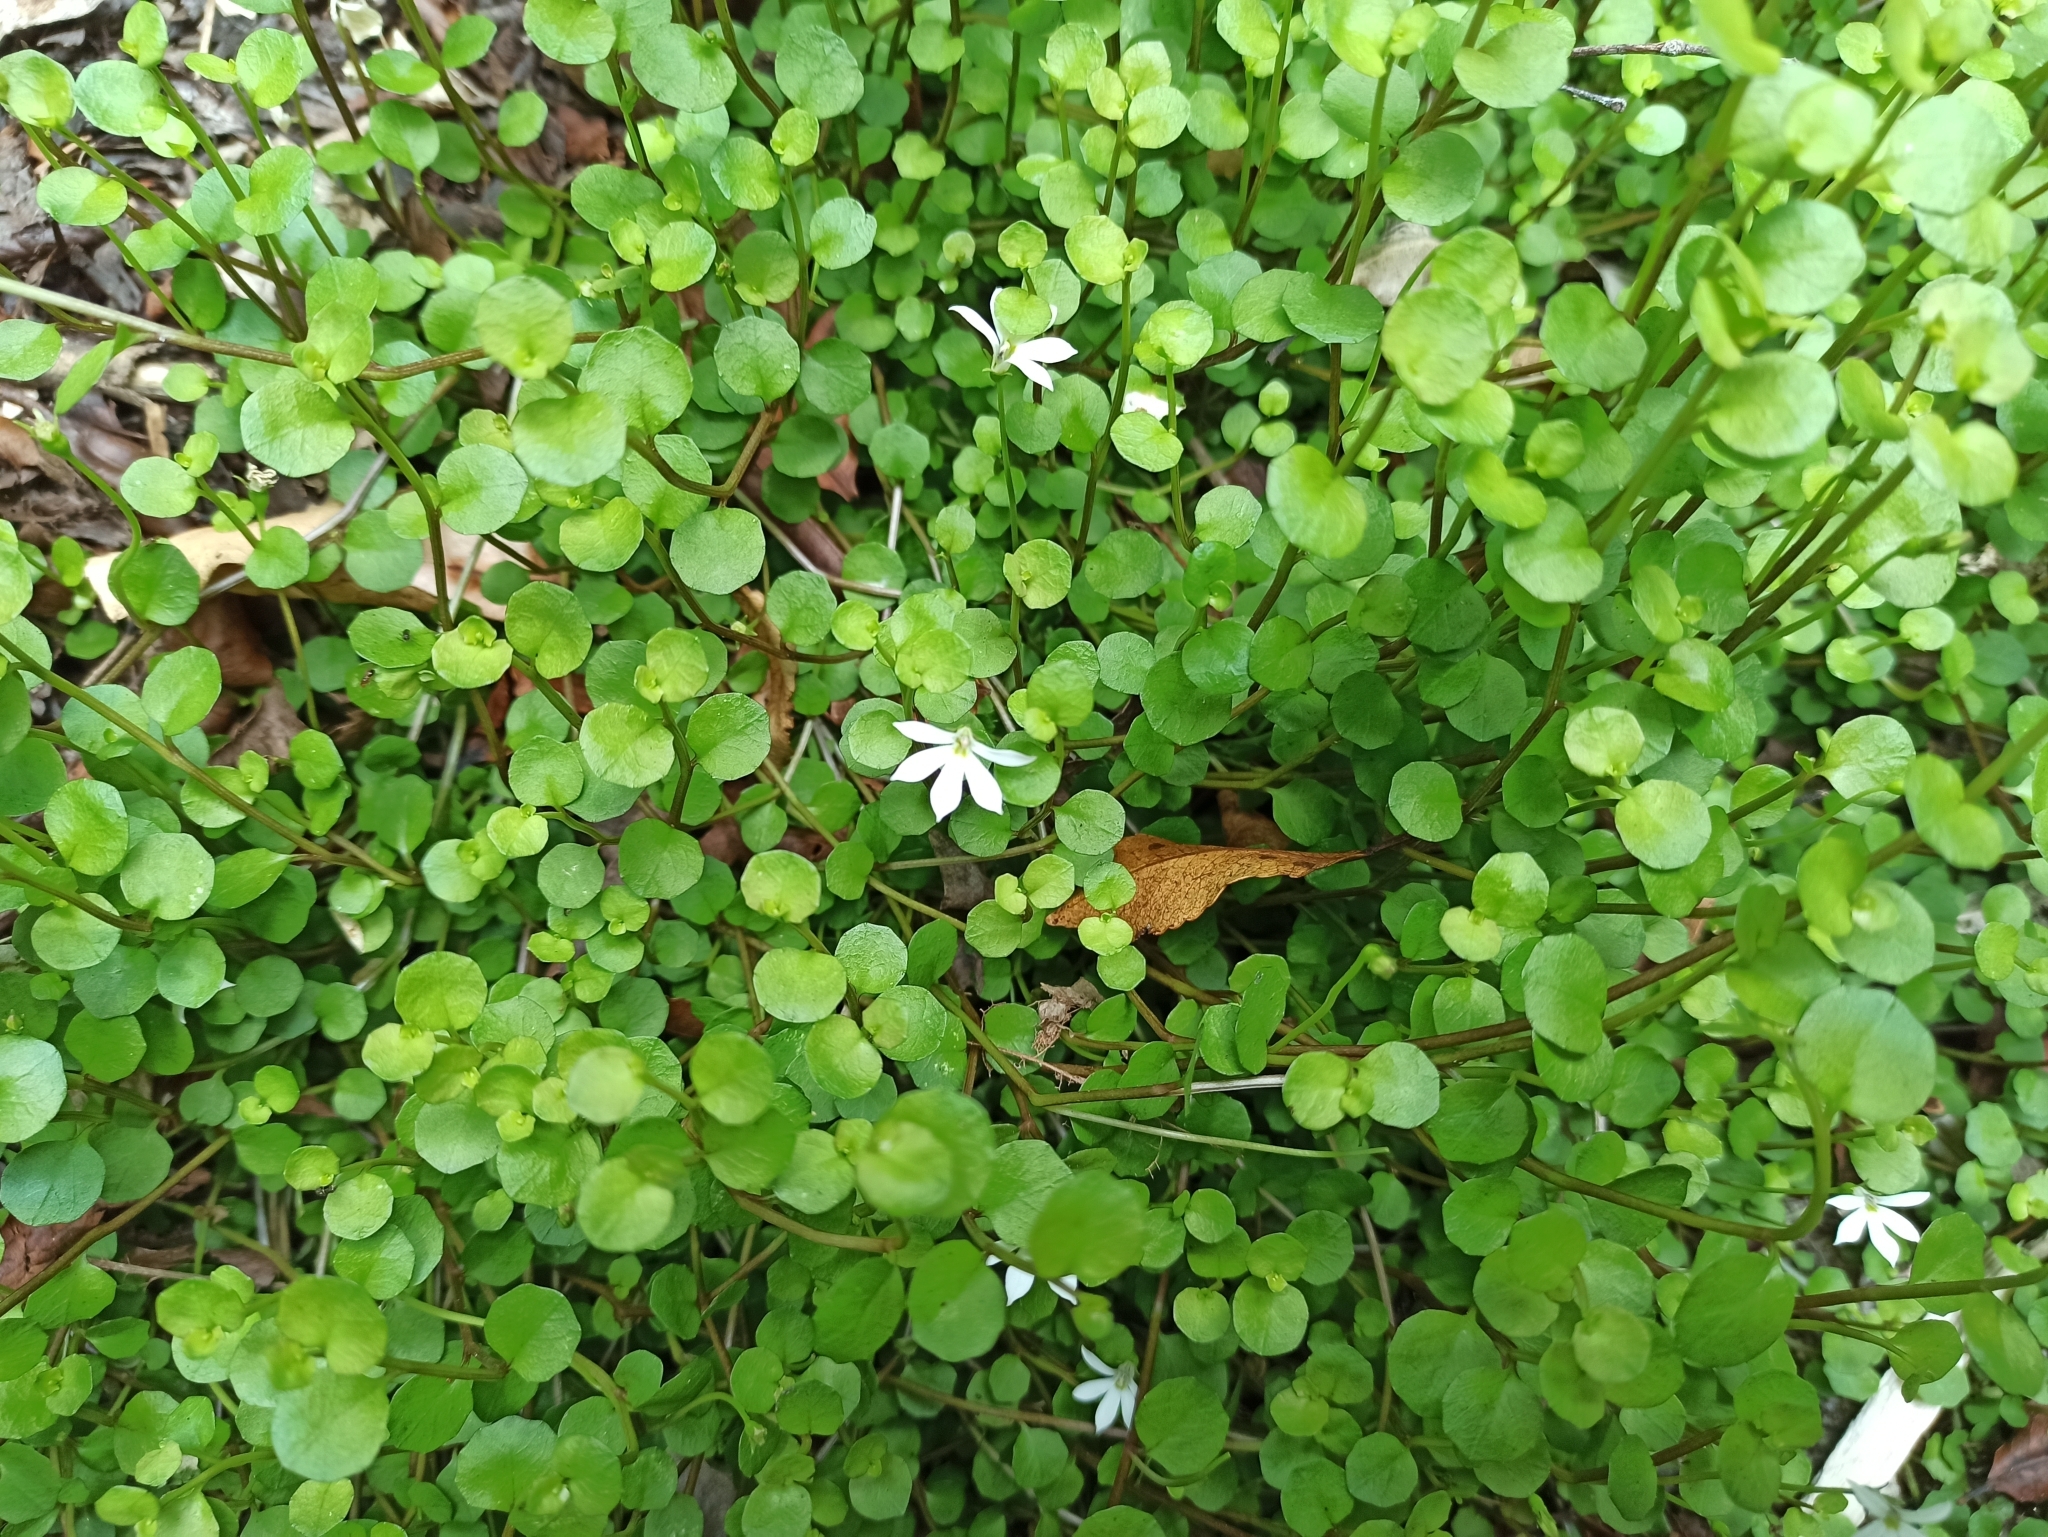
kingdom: Plantae
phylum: Tracheophyta
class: Magnoliopsida
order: Asterales
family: Campanulaceae
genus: Lobelia
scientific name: Lobelia angulata
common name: Lawn lobelia
